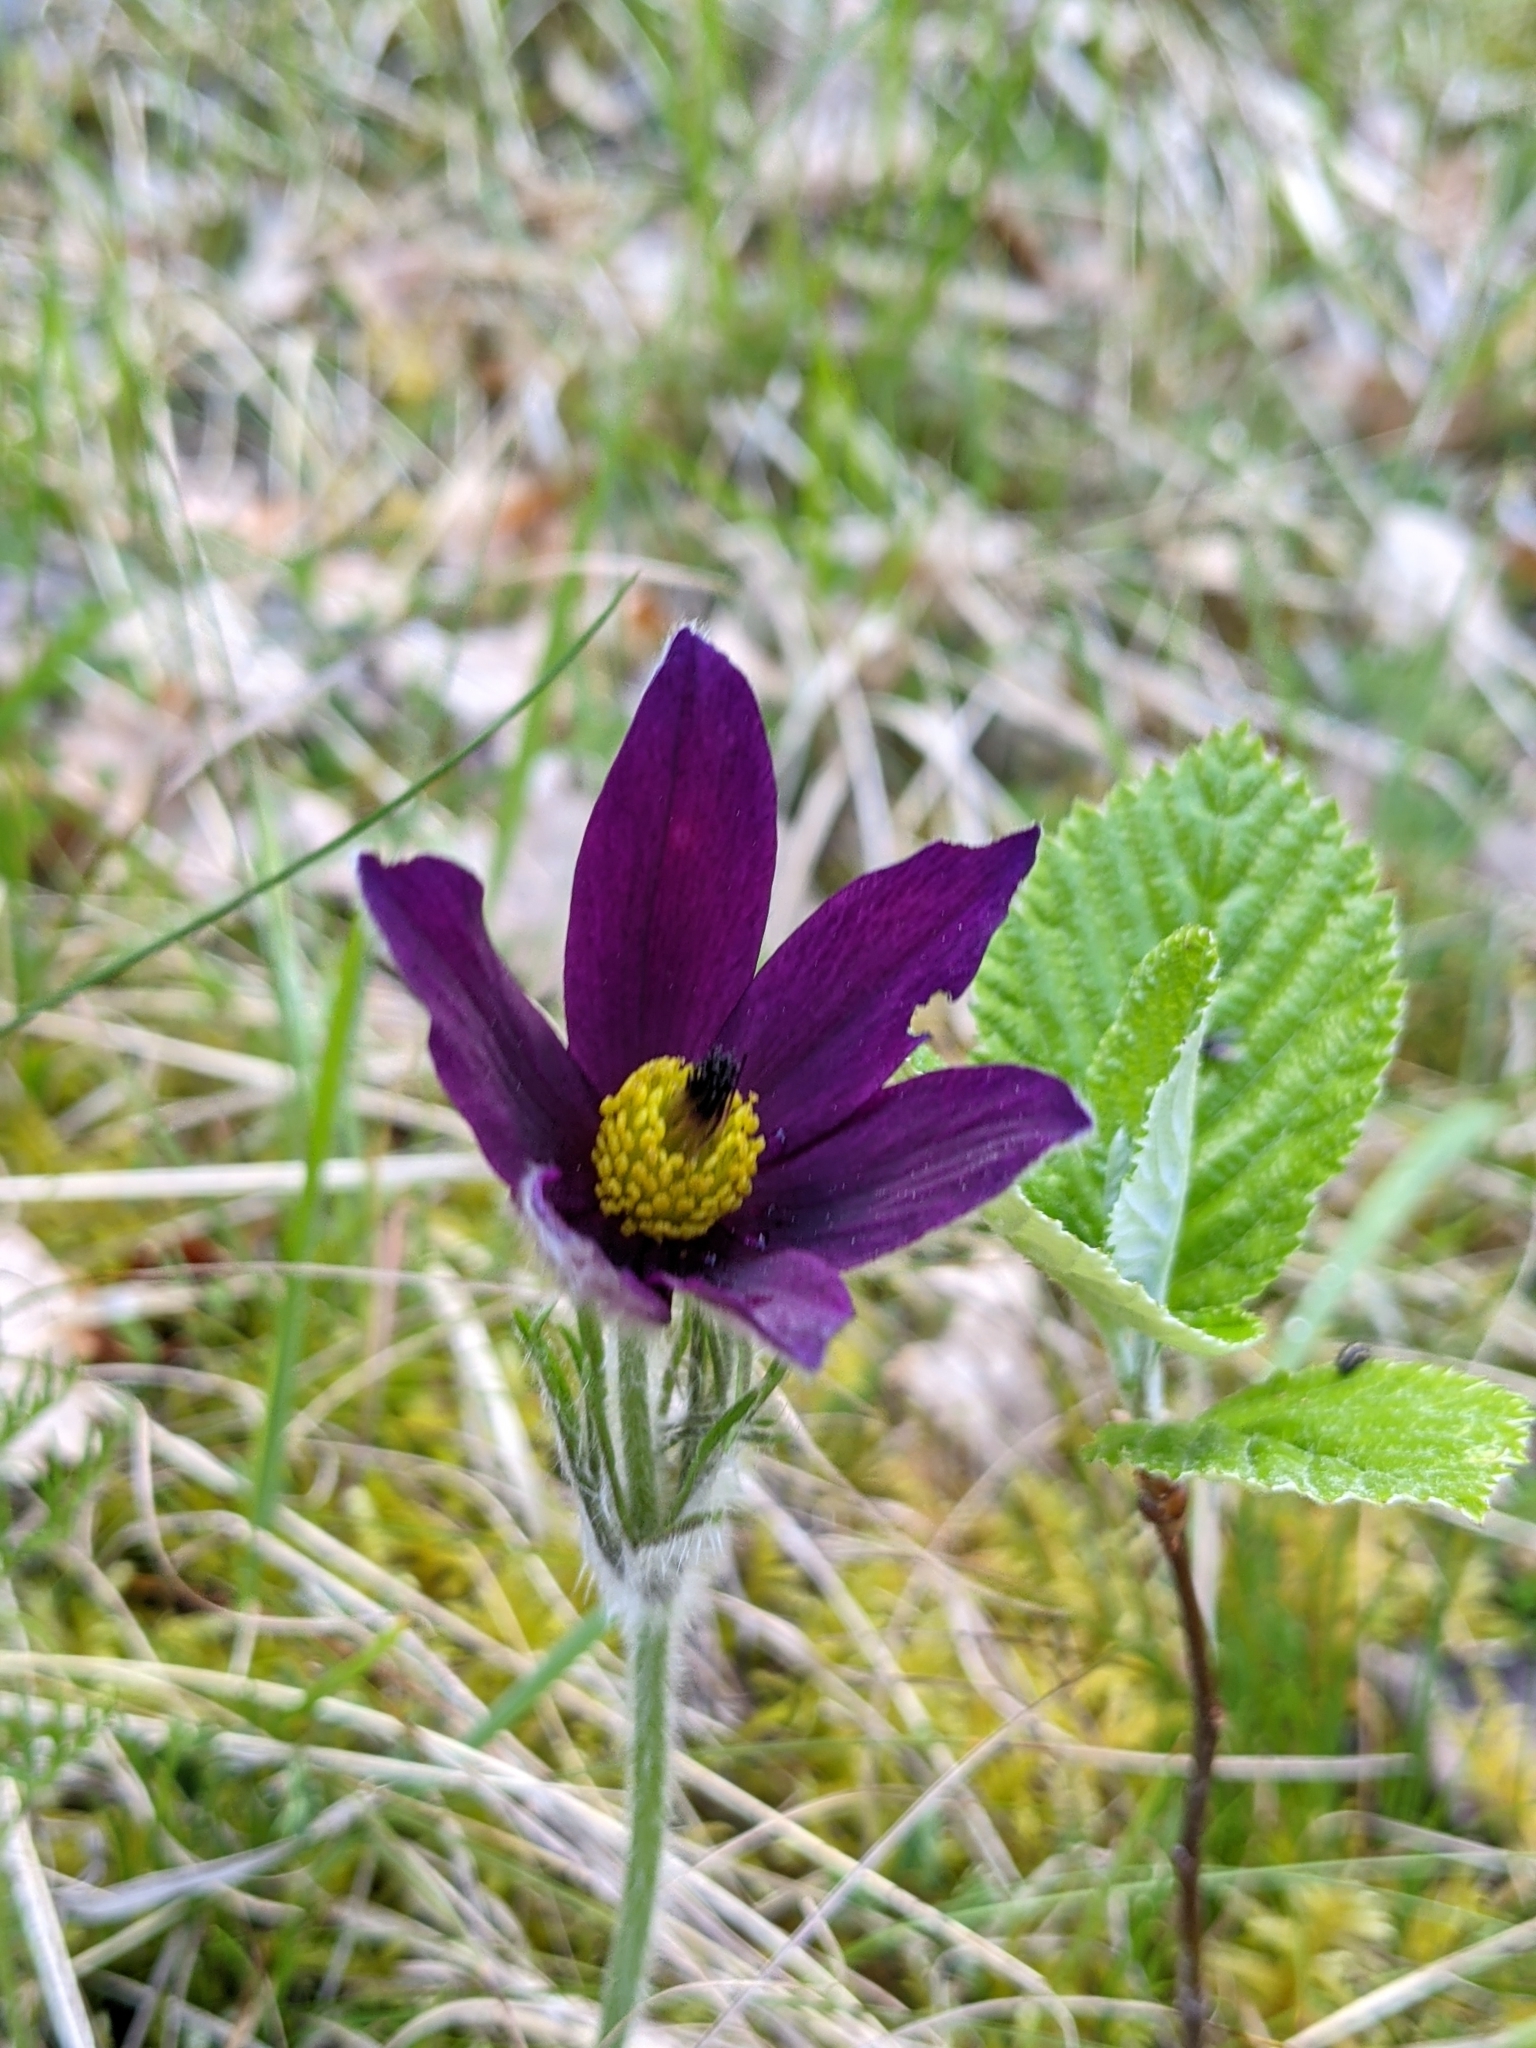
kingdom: Plantae
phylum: Tracheophyta
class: Magnoliopsida
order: Ranunculales
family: Ranunculaceae
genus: Pulsatilla
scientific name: Pulsatilla vulgaris
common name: Pasqueflower
